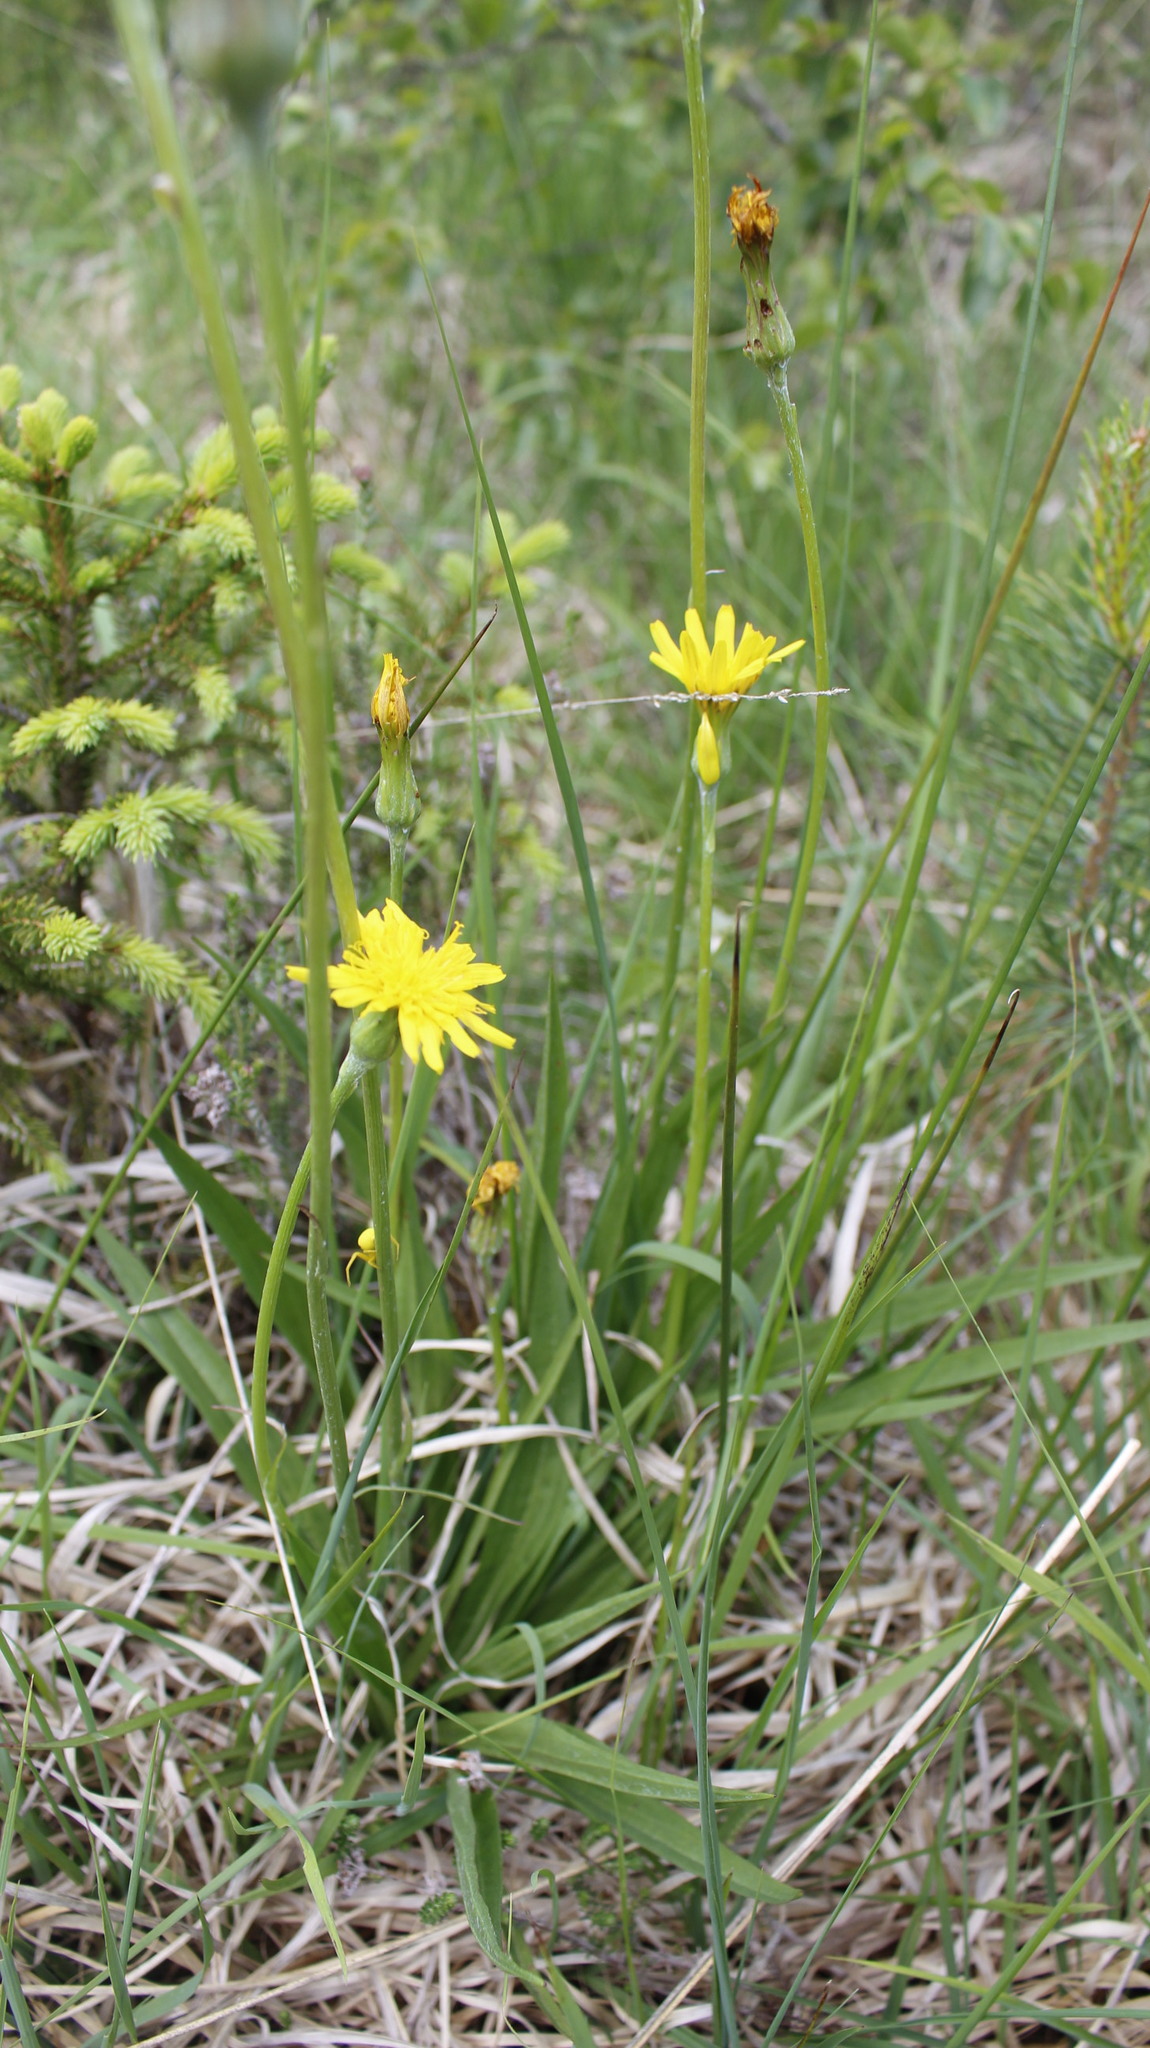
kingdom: Plantae
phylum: Tracheophyta
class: Magnoliopsida
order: Asterales
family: Asteraceae
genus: Scorzonera
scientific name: Scorzonera humilis
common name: Viper's-grass
